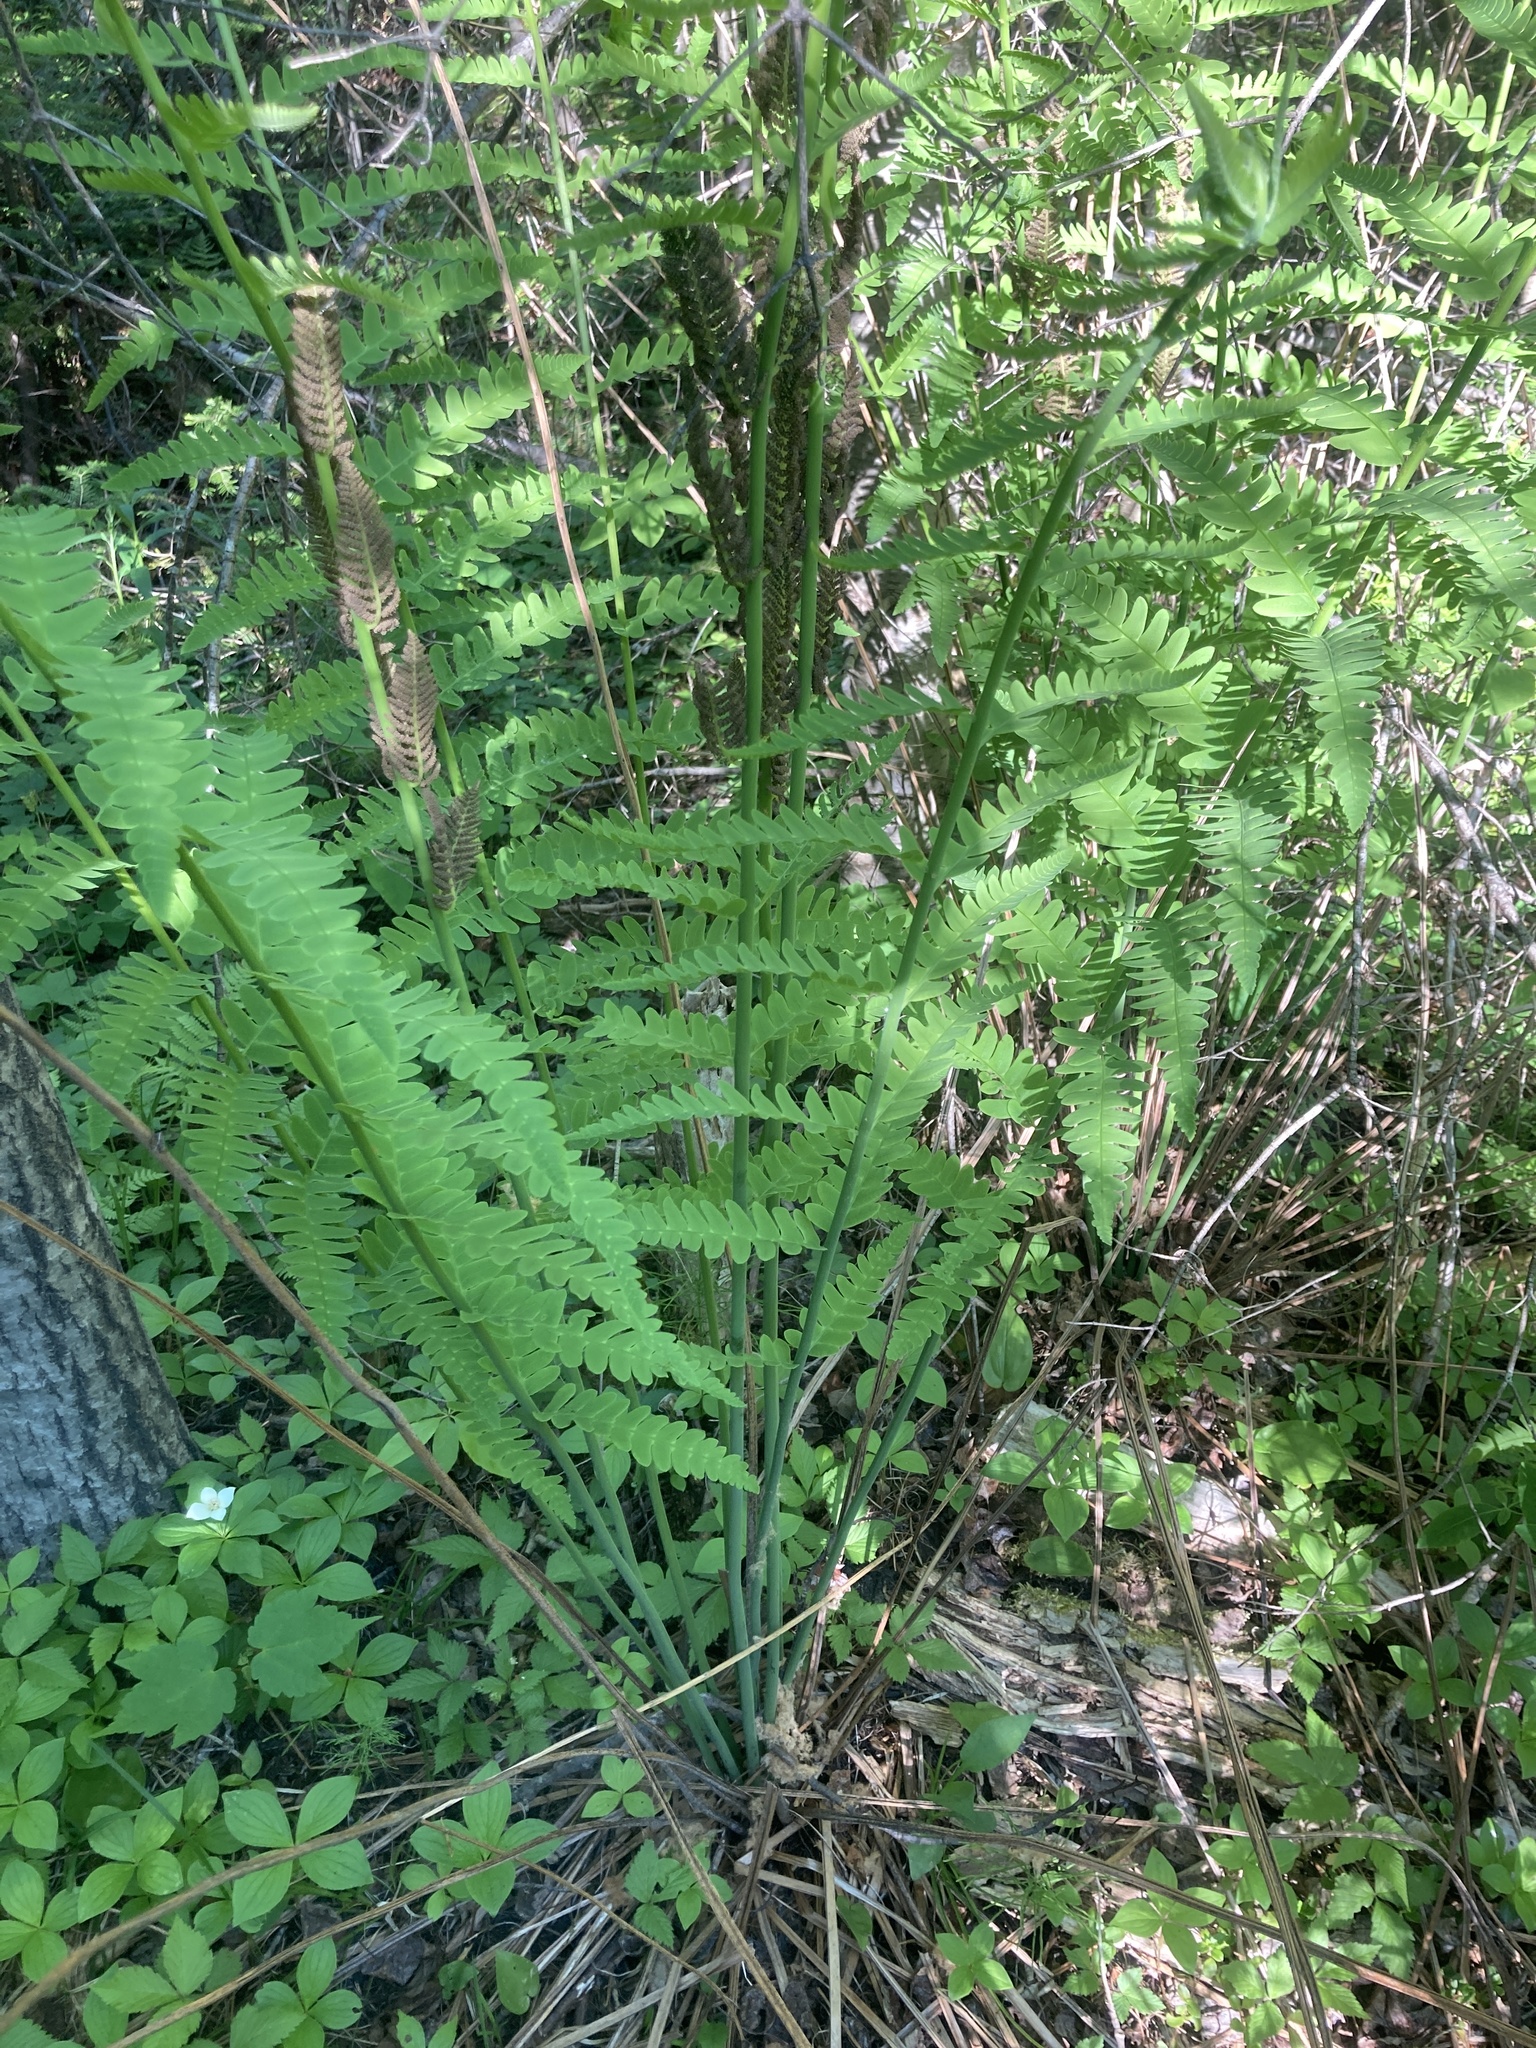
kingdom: Plantae
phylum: Tracheophyta
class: Polypodiopsida
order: Osmundales
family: Osmundaceae
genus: Osmundastrum
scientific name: Osmundastrum cinnamomeum
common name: Cinnamon fern
